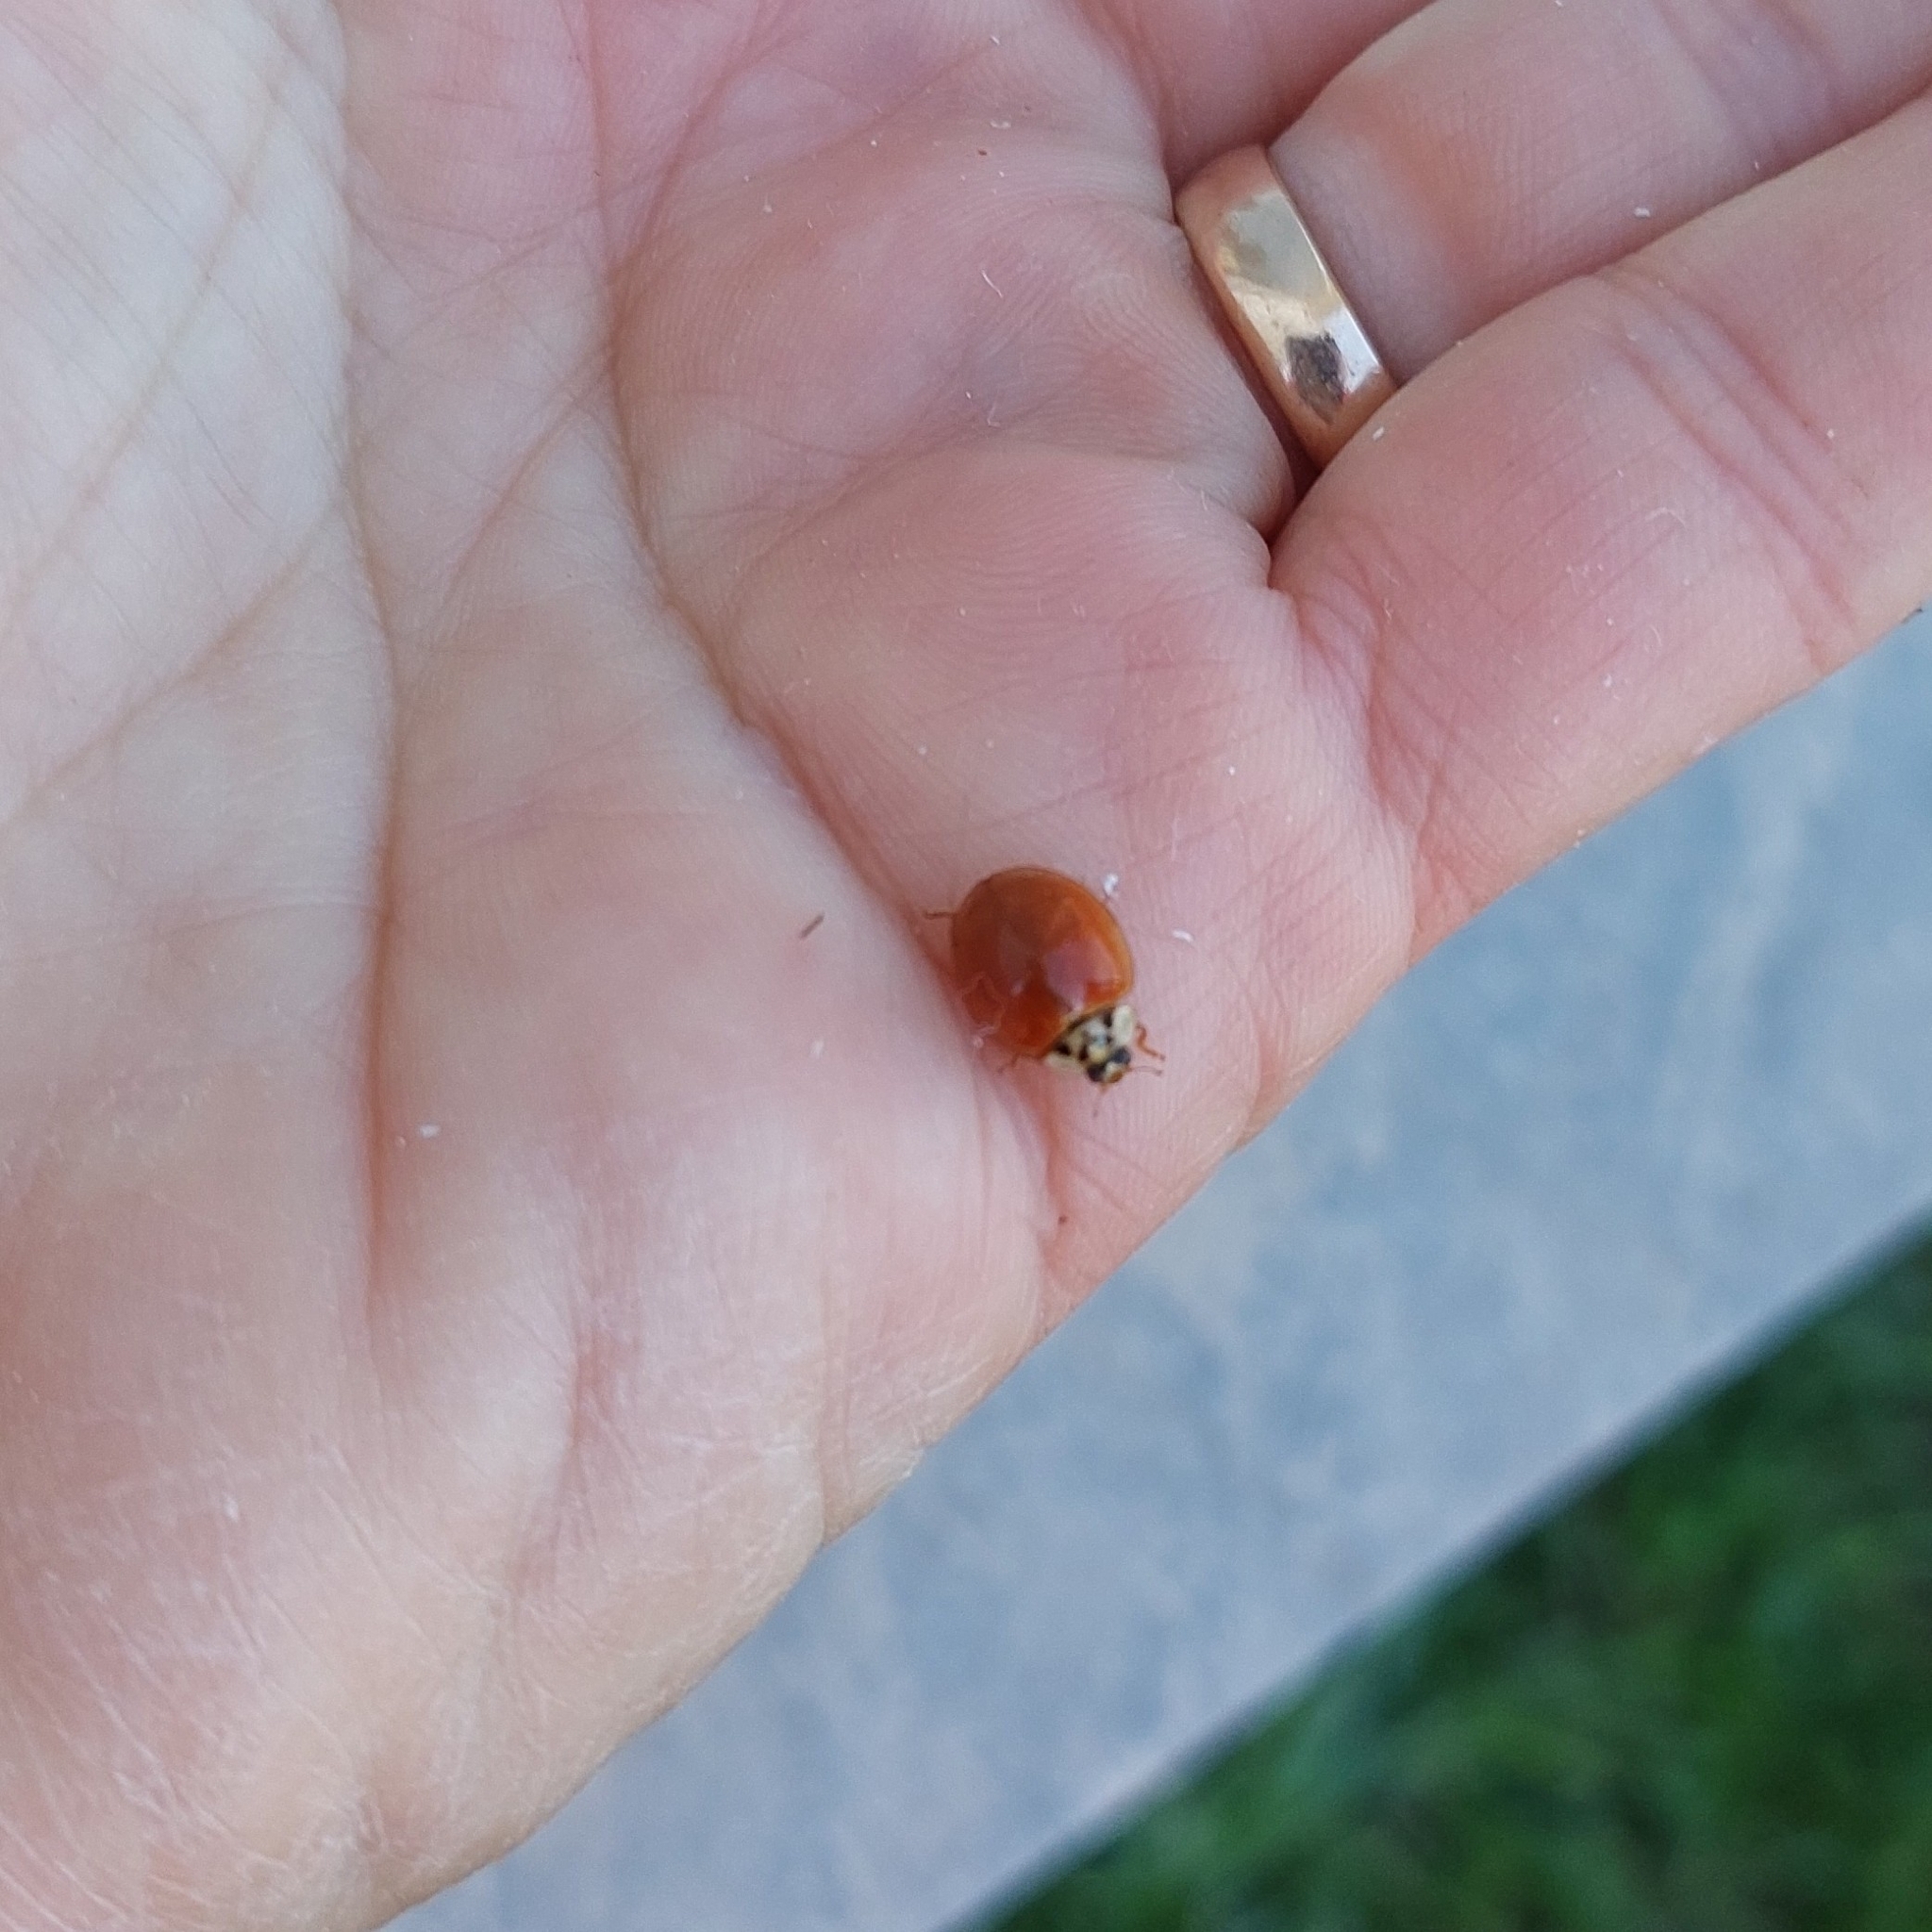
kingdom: Animalia
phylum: Arthropoda
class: Insecta
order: Coleoptera
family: Coccinellidae
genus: Harmonia
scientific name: Harmonia axyridis
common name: Harlequin ladybird
